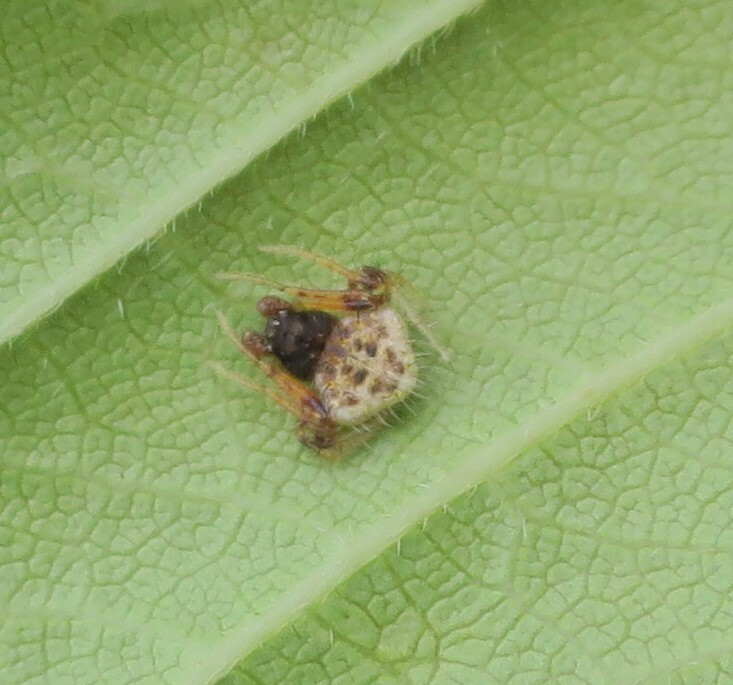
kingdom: Animalia
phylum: Arthropoda
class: Arachnida
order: Araneae
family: Araneidae
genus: Poecilopachys
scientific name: Poecilopachys australasia
